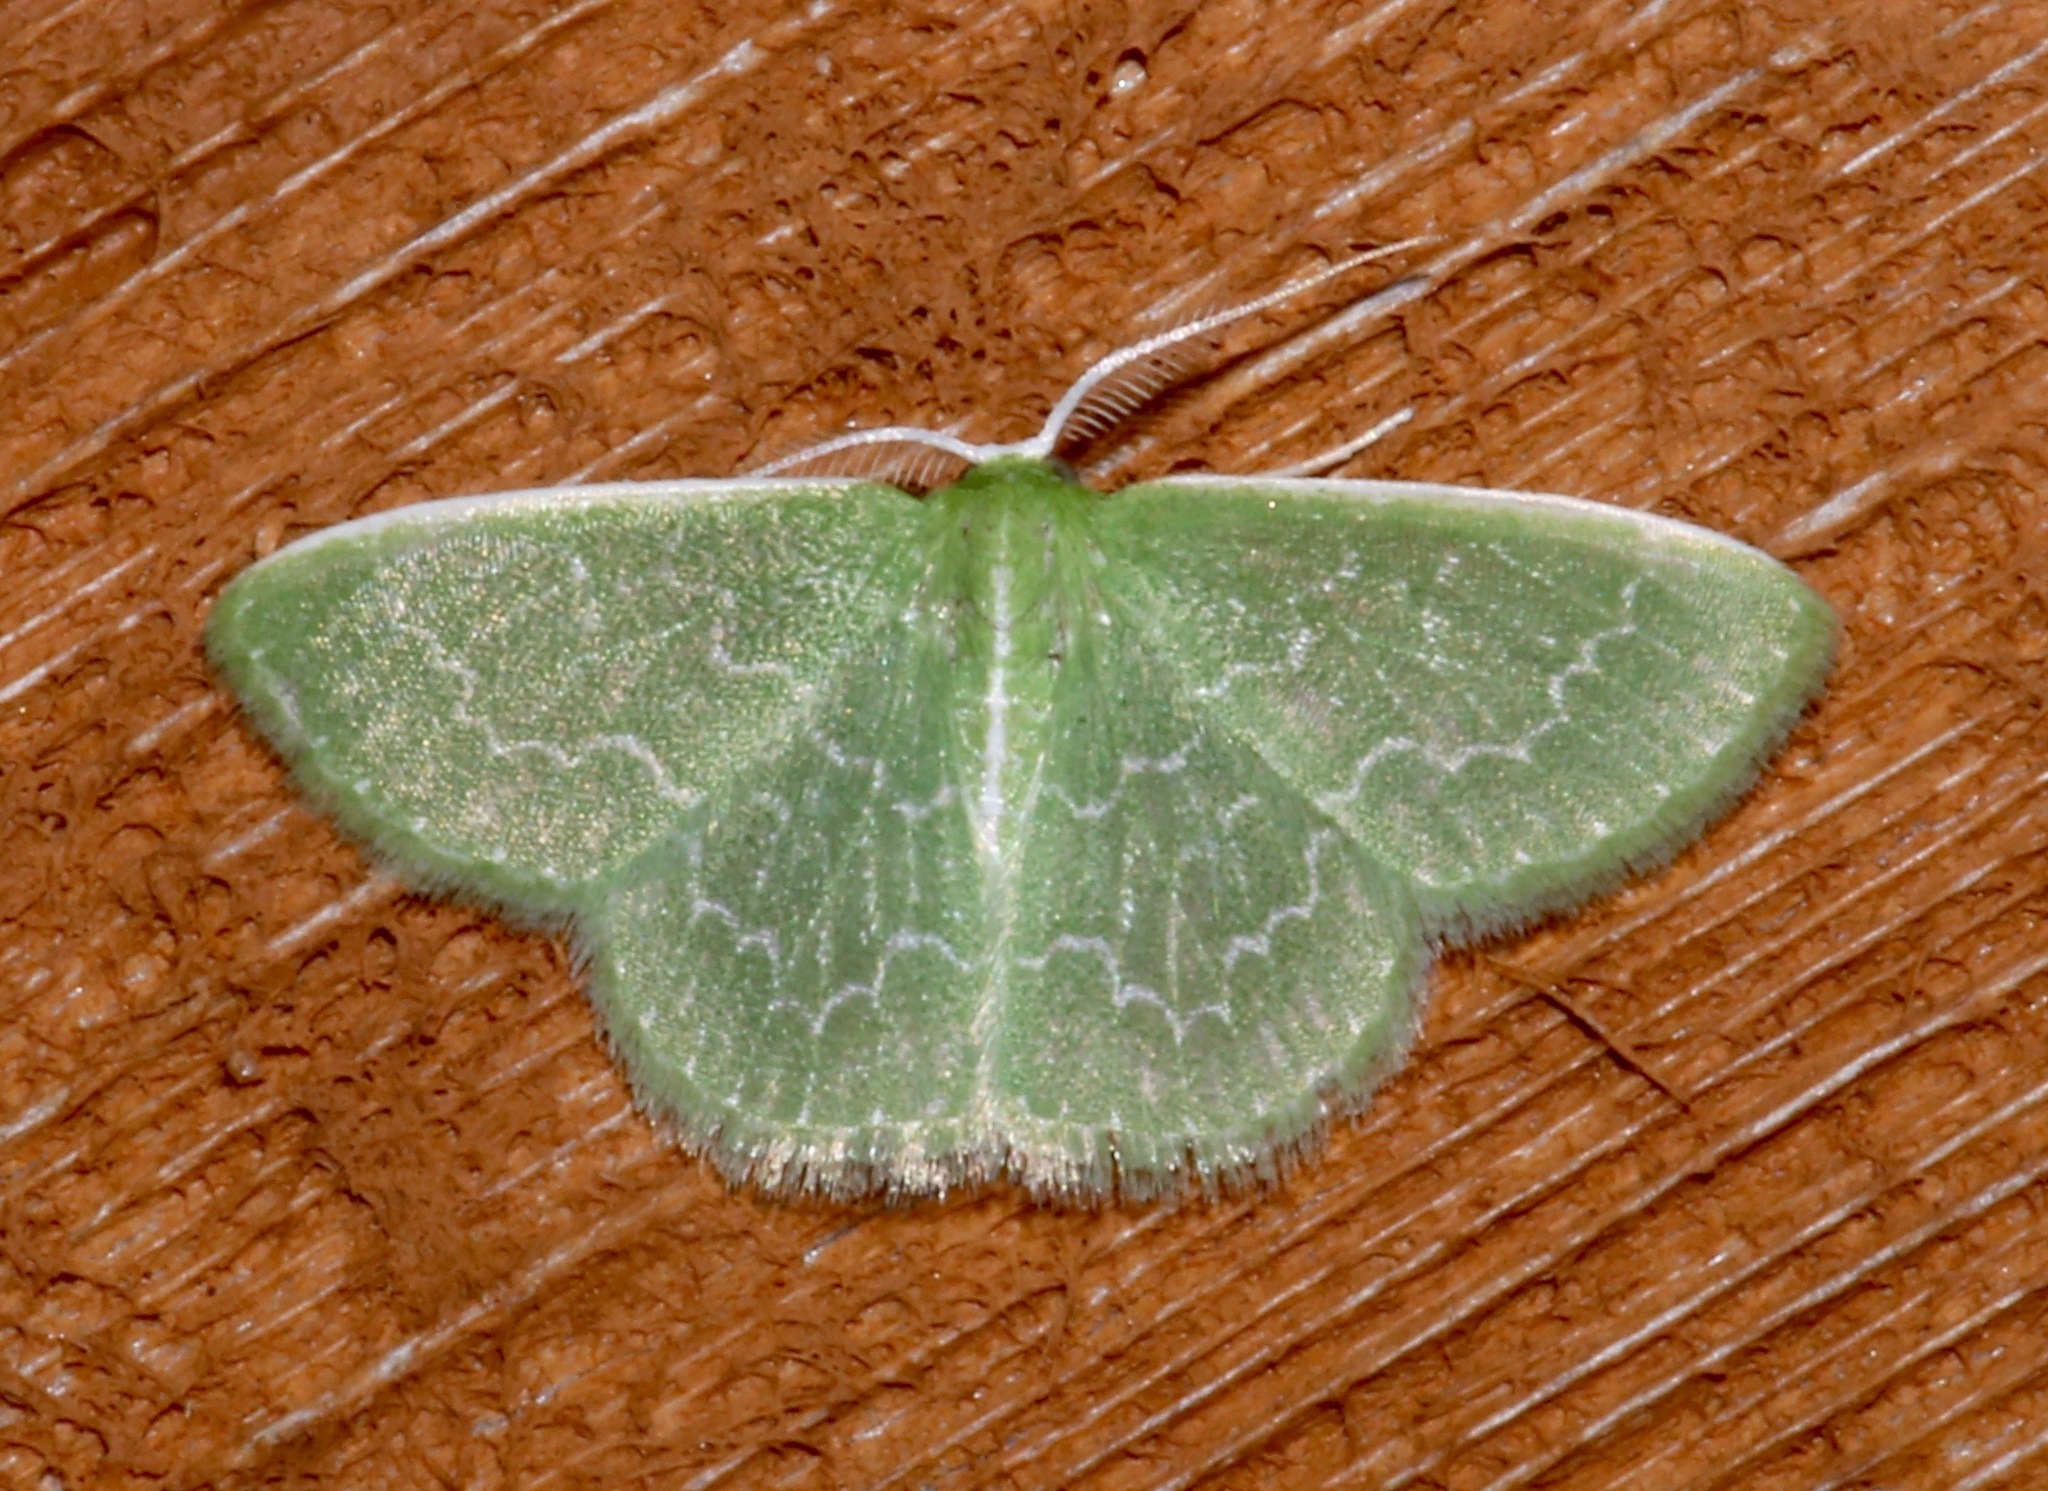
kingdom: Animalia
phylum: Arthropoda
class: Insecta
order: Lepidoptera
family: Geometridae
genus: Synchlora
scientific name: Synchlora frondaria
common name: Southern emerald
